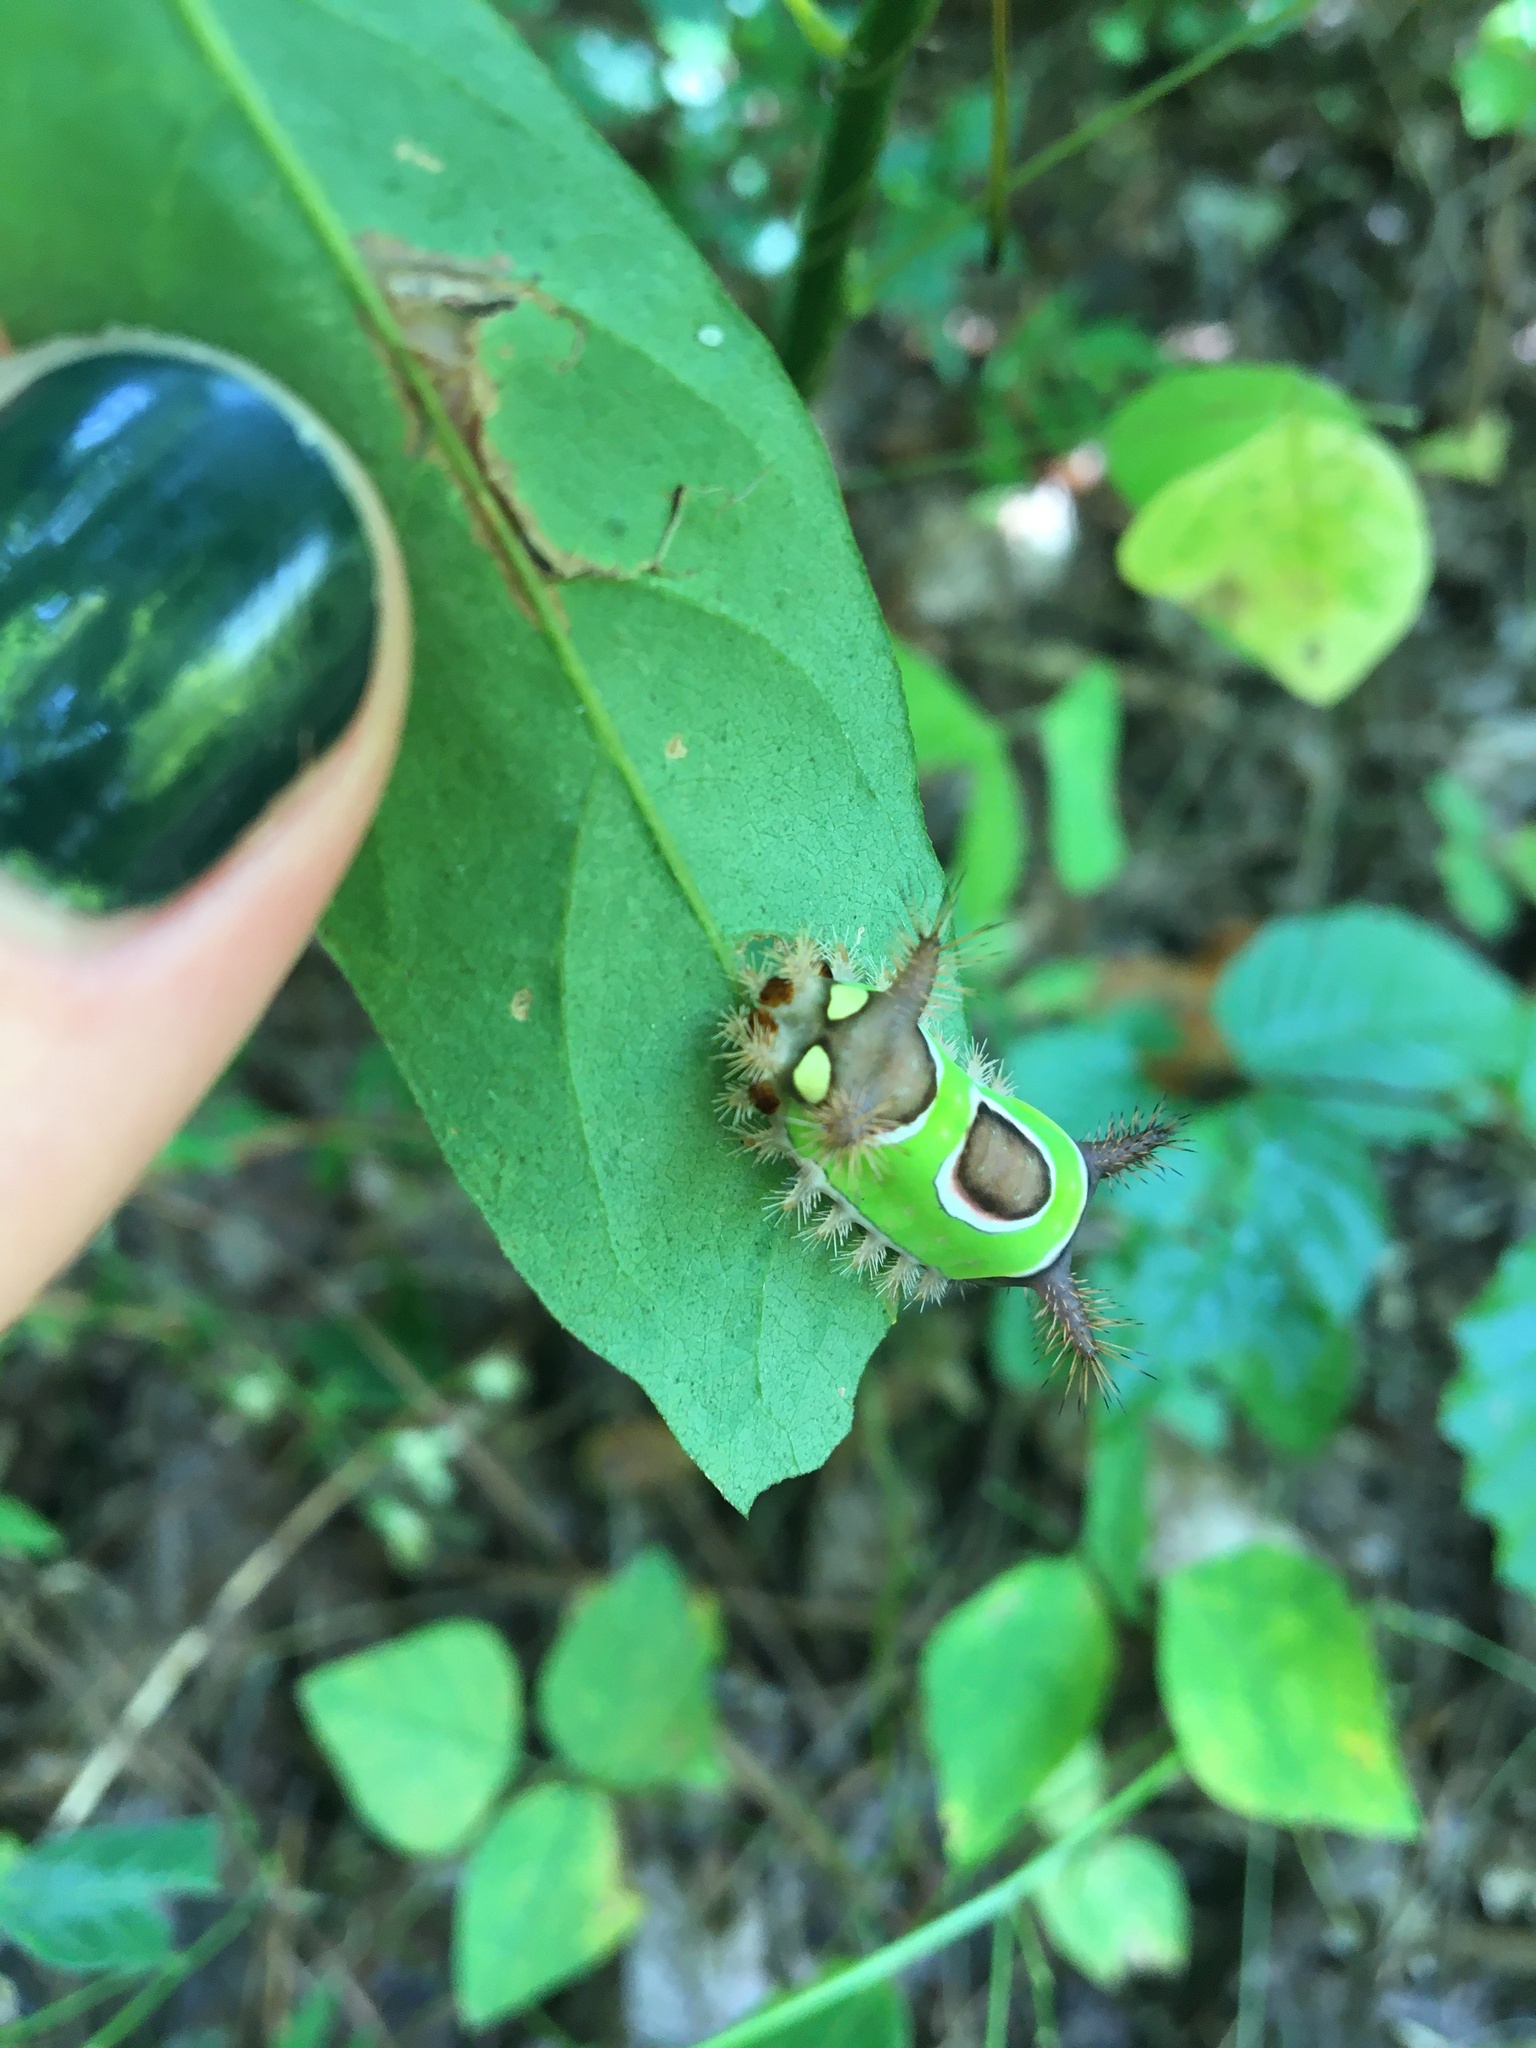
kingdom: Animalia
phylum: Arthropoda
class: Insecta
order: Lepidoptera
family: Limacodidae
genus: Acharia
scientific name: Acharia stimulea
